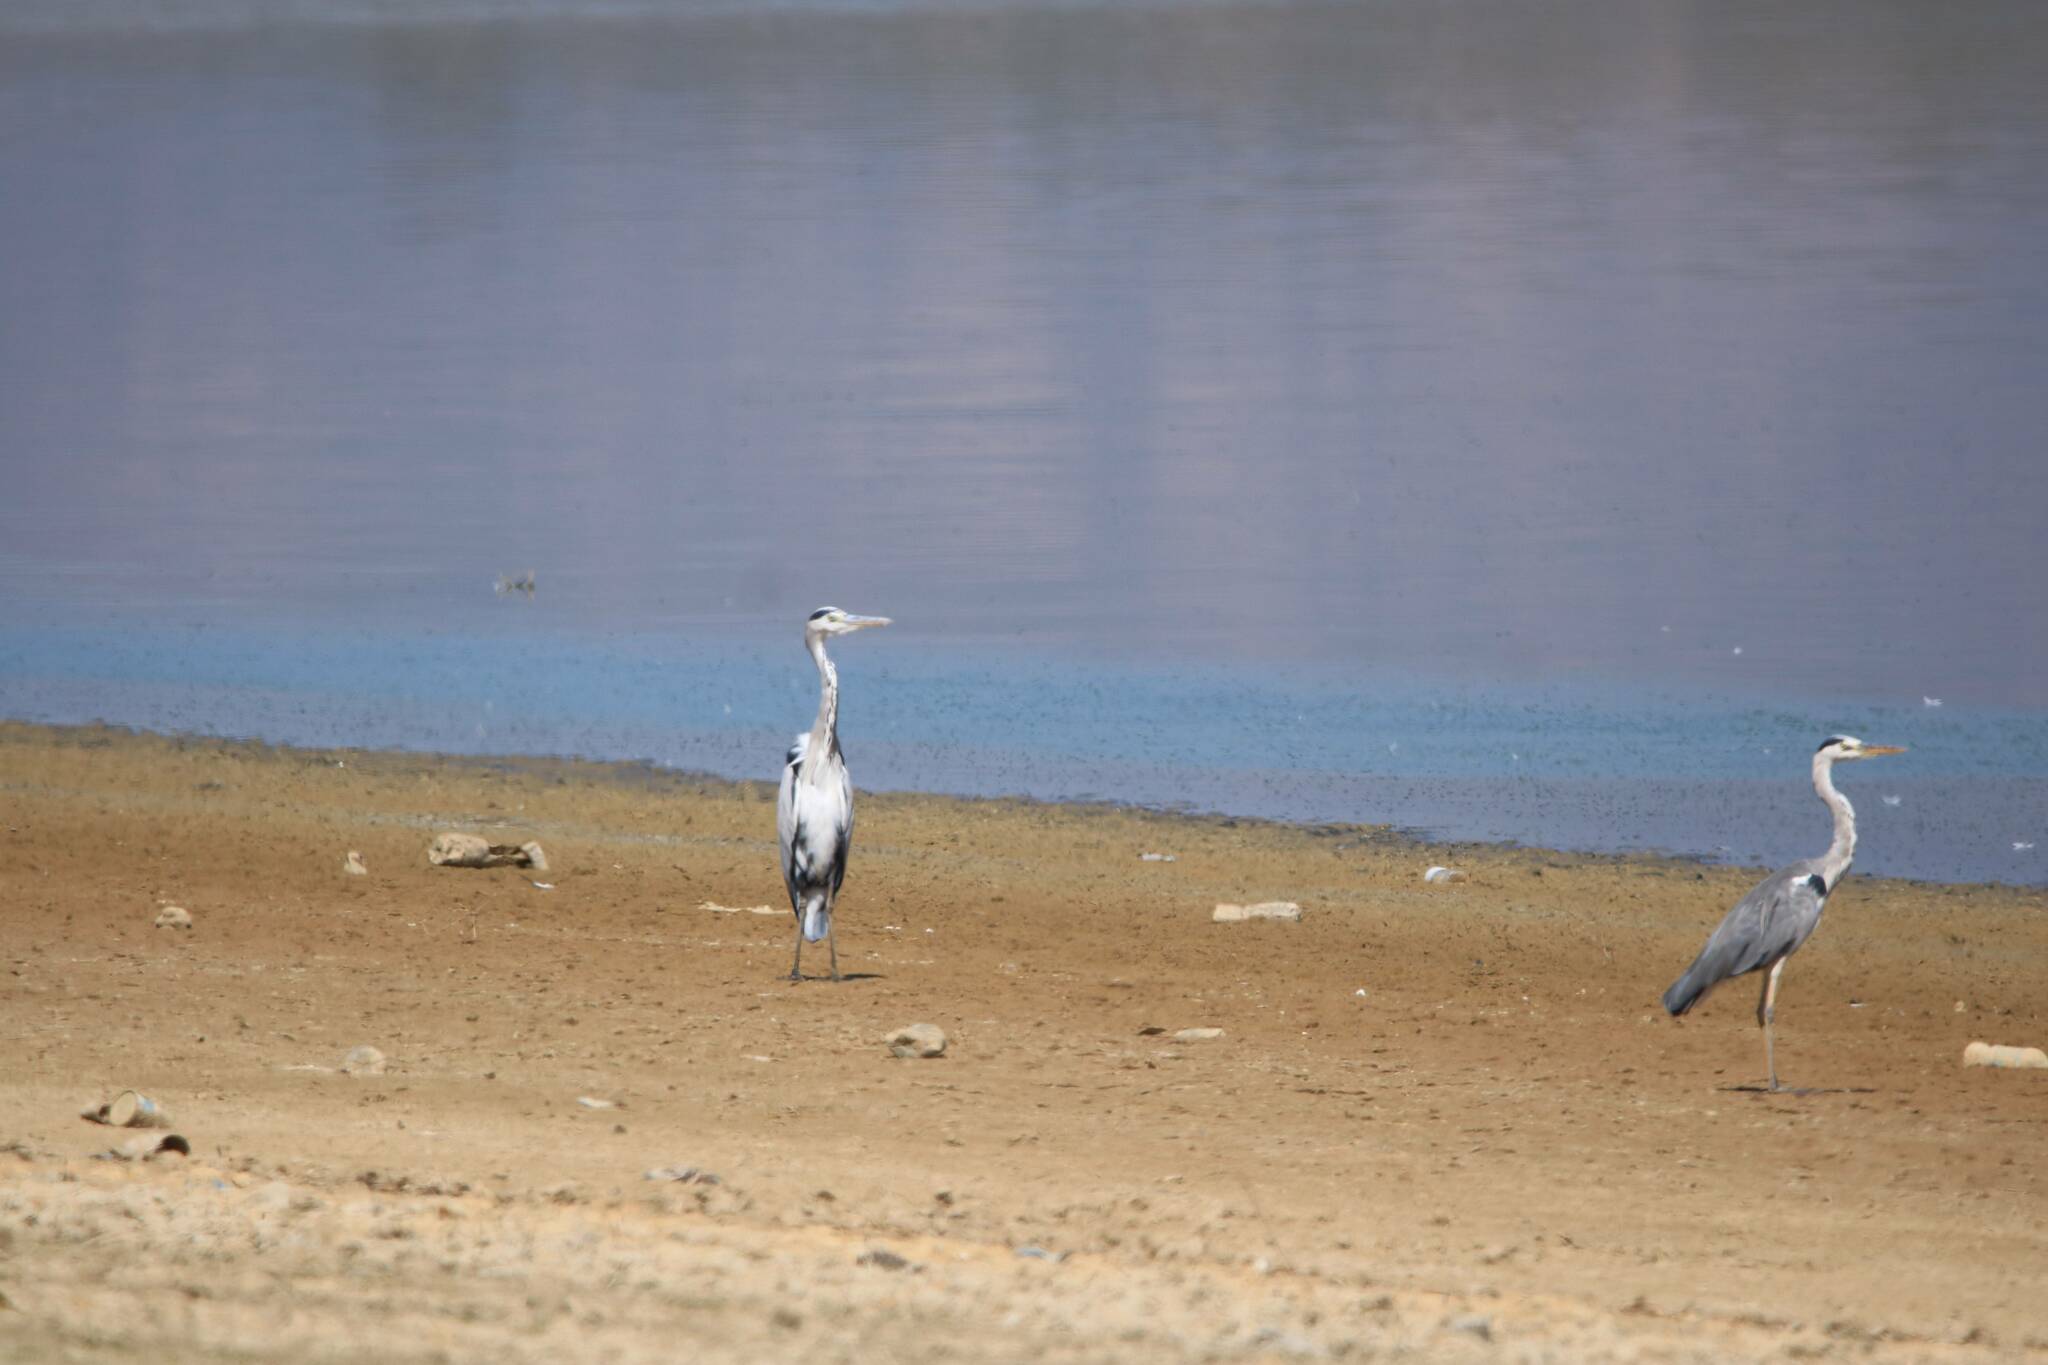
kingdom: Animalia
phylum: Chordata
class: Aves
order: Pelecaniformes
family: Ardeidae
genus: Ardea
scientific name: Ardea cinerea
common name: Grey heron
